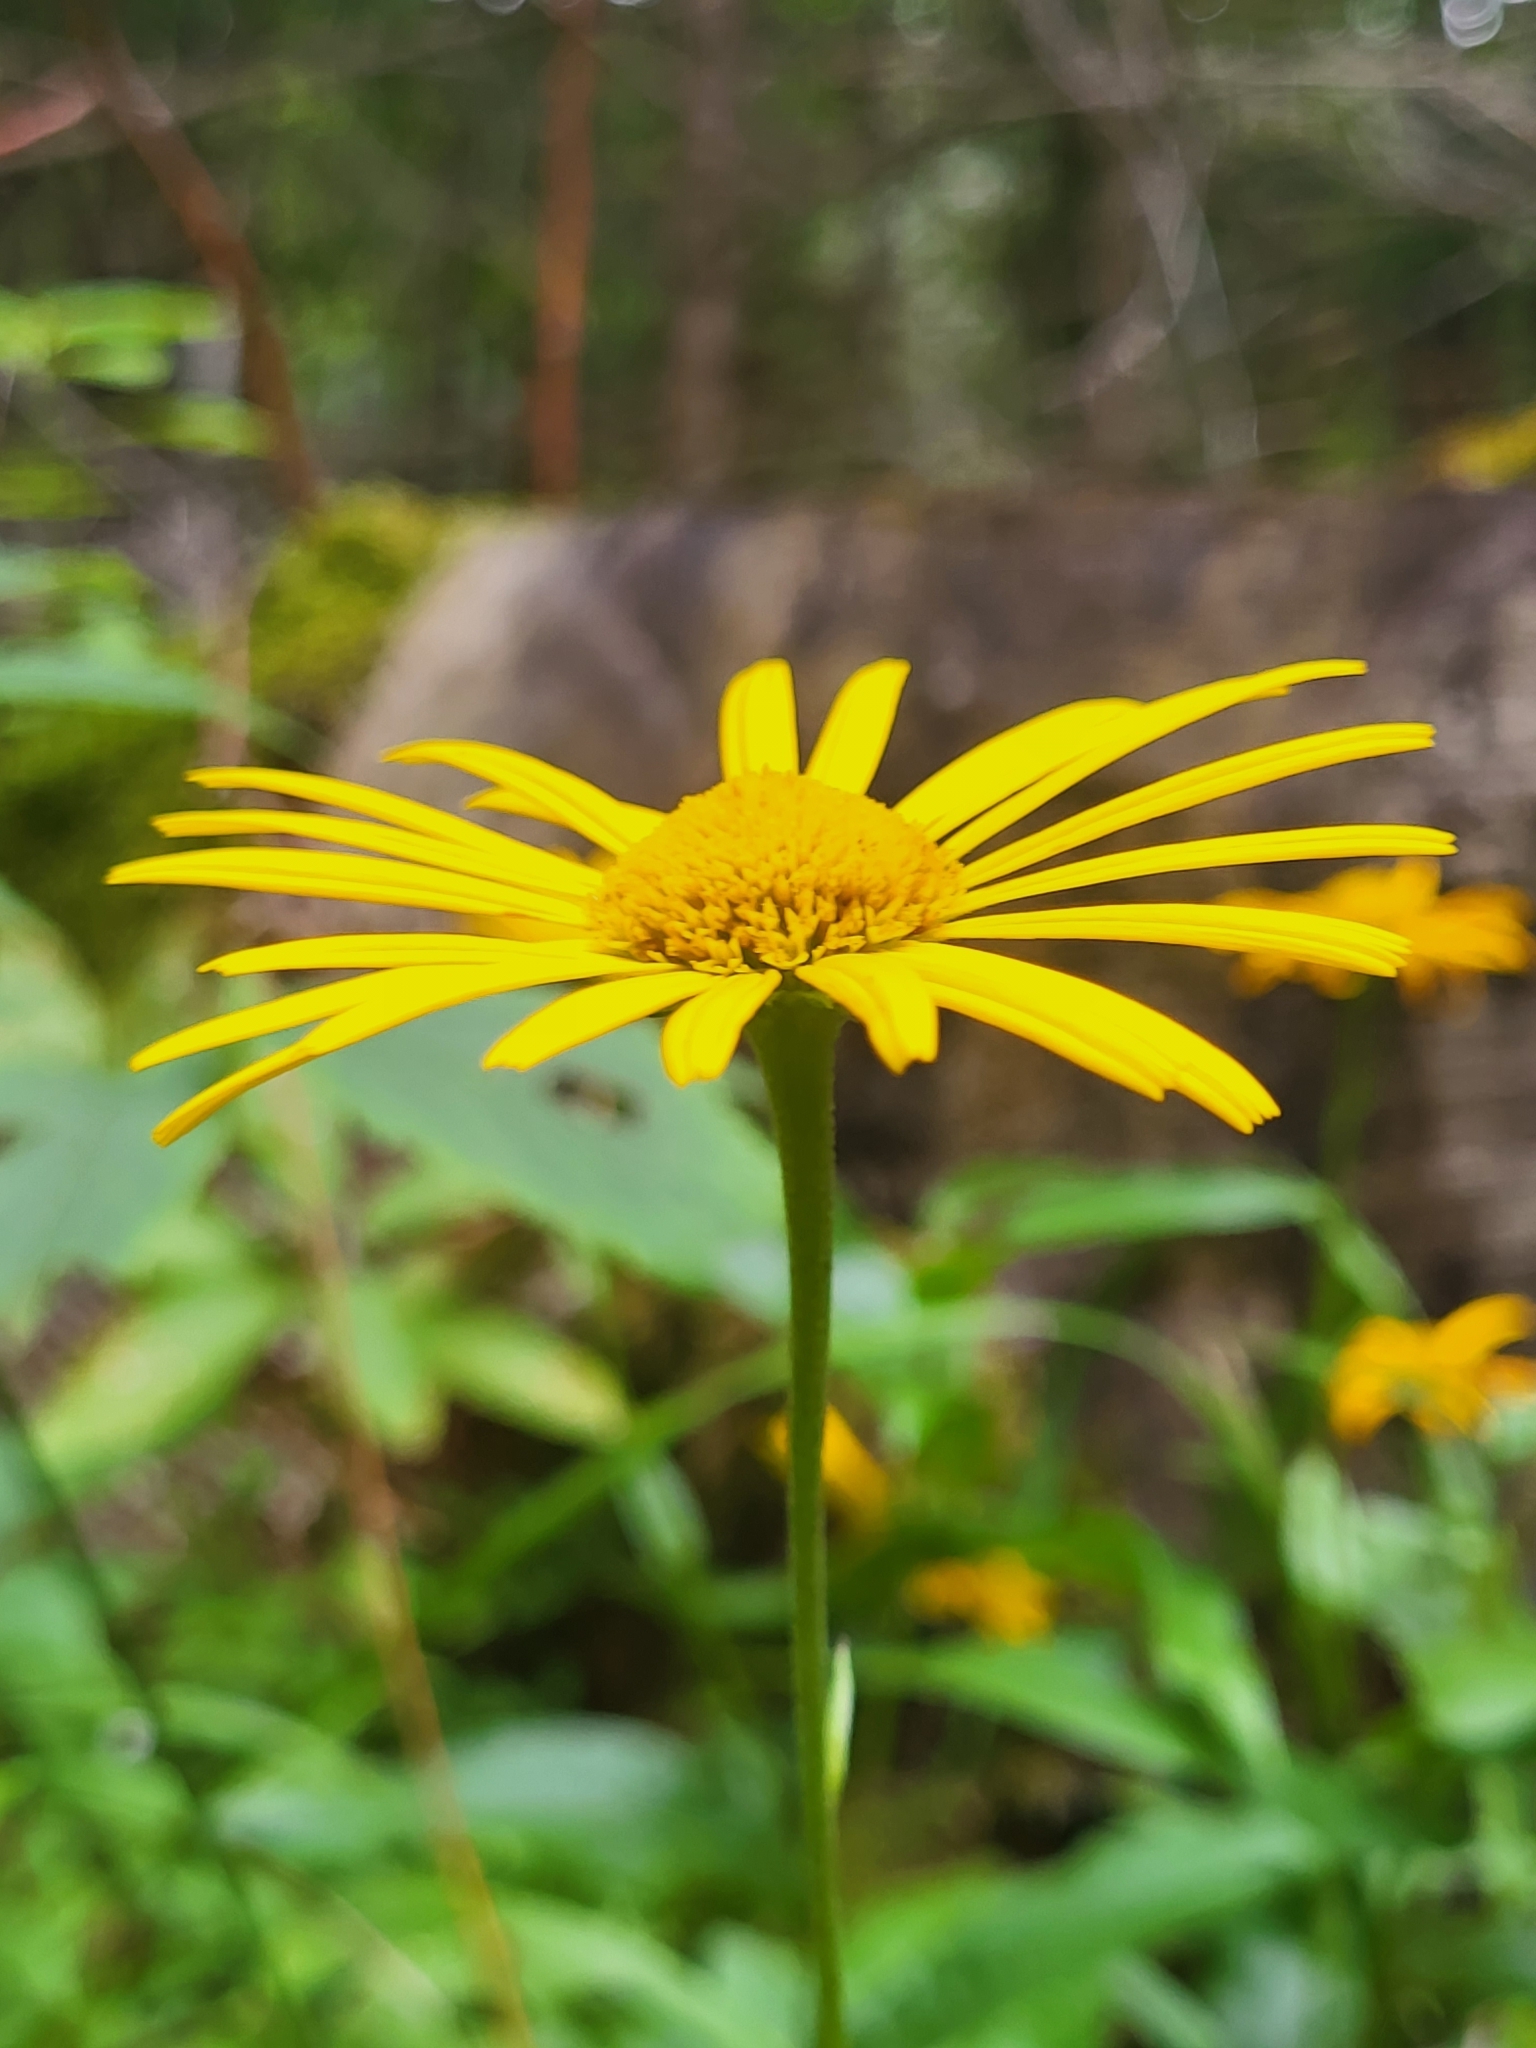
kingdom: Plantae
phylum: Tracheophyta
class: Magnoliopsida
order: Asterales
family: Asteraceae
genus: Buphthalmum
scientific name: Buphthalmum salicifolium
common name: Willow-leaved yellow-oxeye
